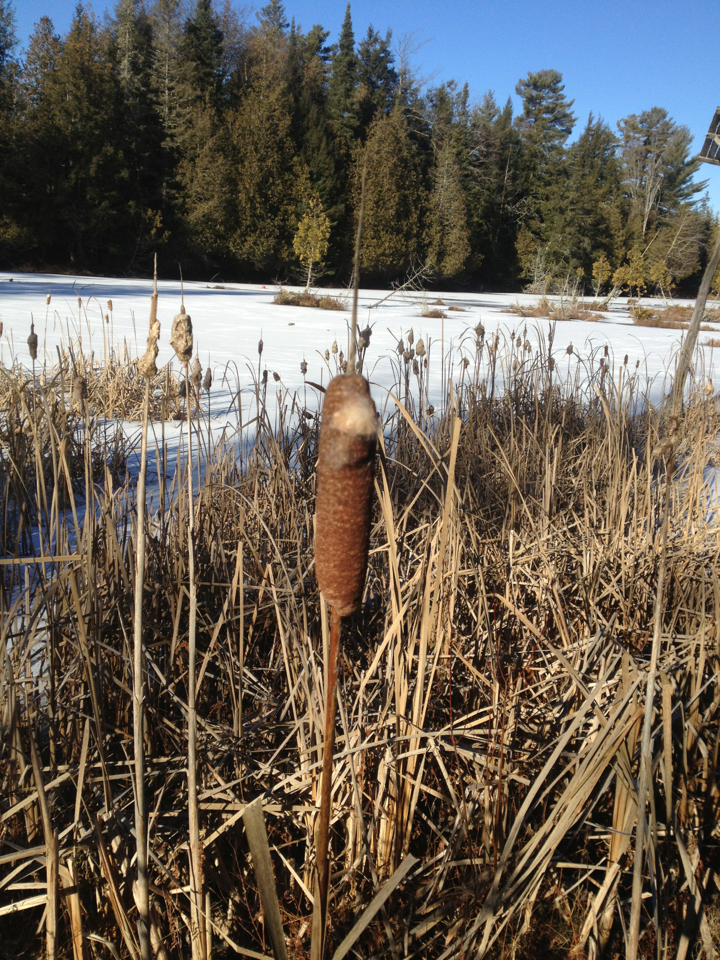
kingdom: Plantae
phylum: Tracheophyta
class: Liliopsida
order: Poales
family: Typhaceae
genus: Typha
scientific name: Typha latifolia
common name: Broadleaf cattail
